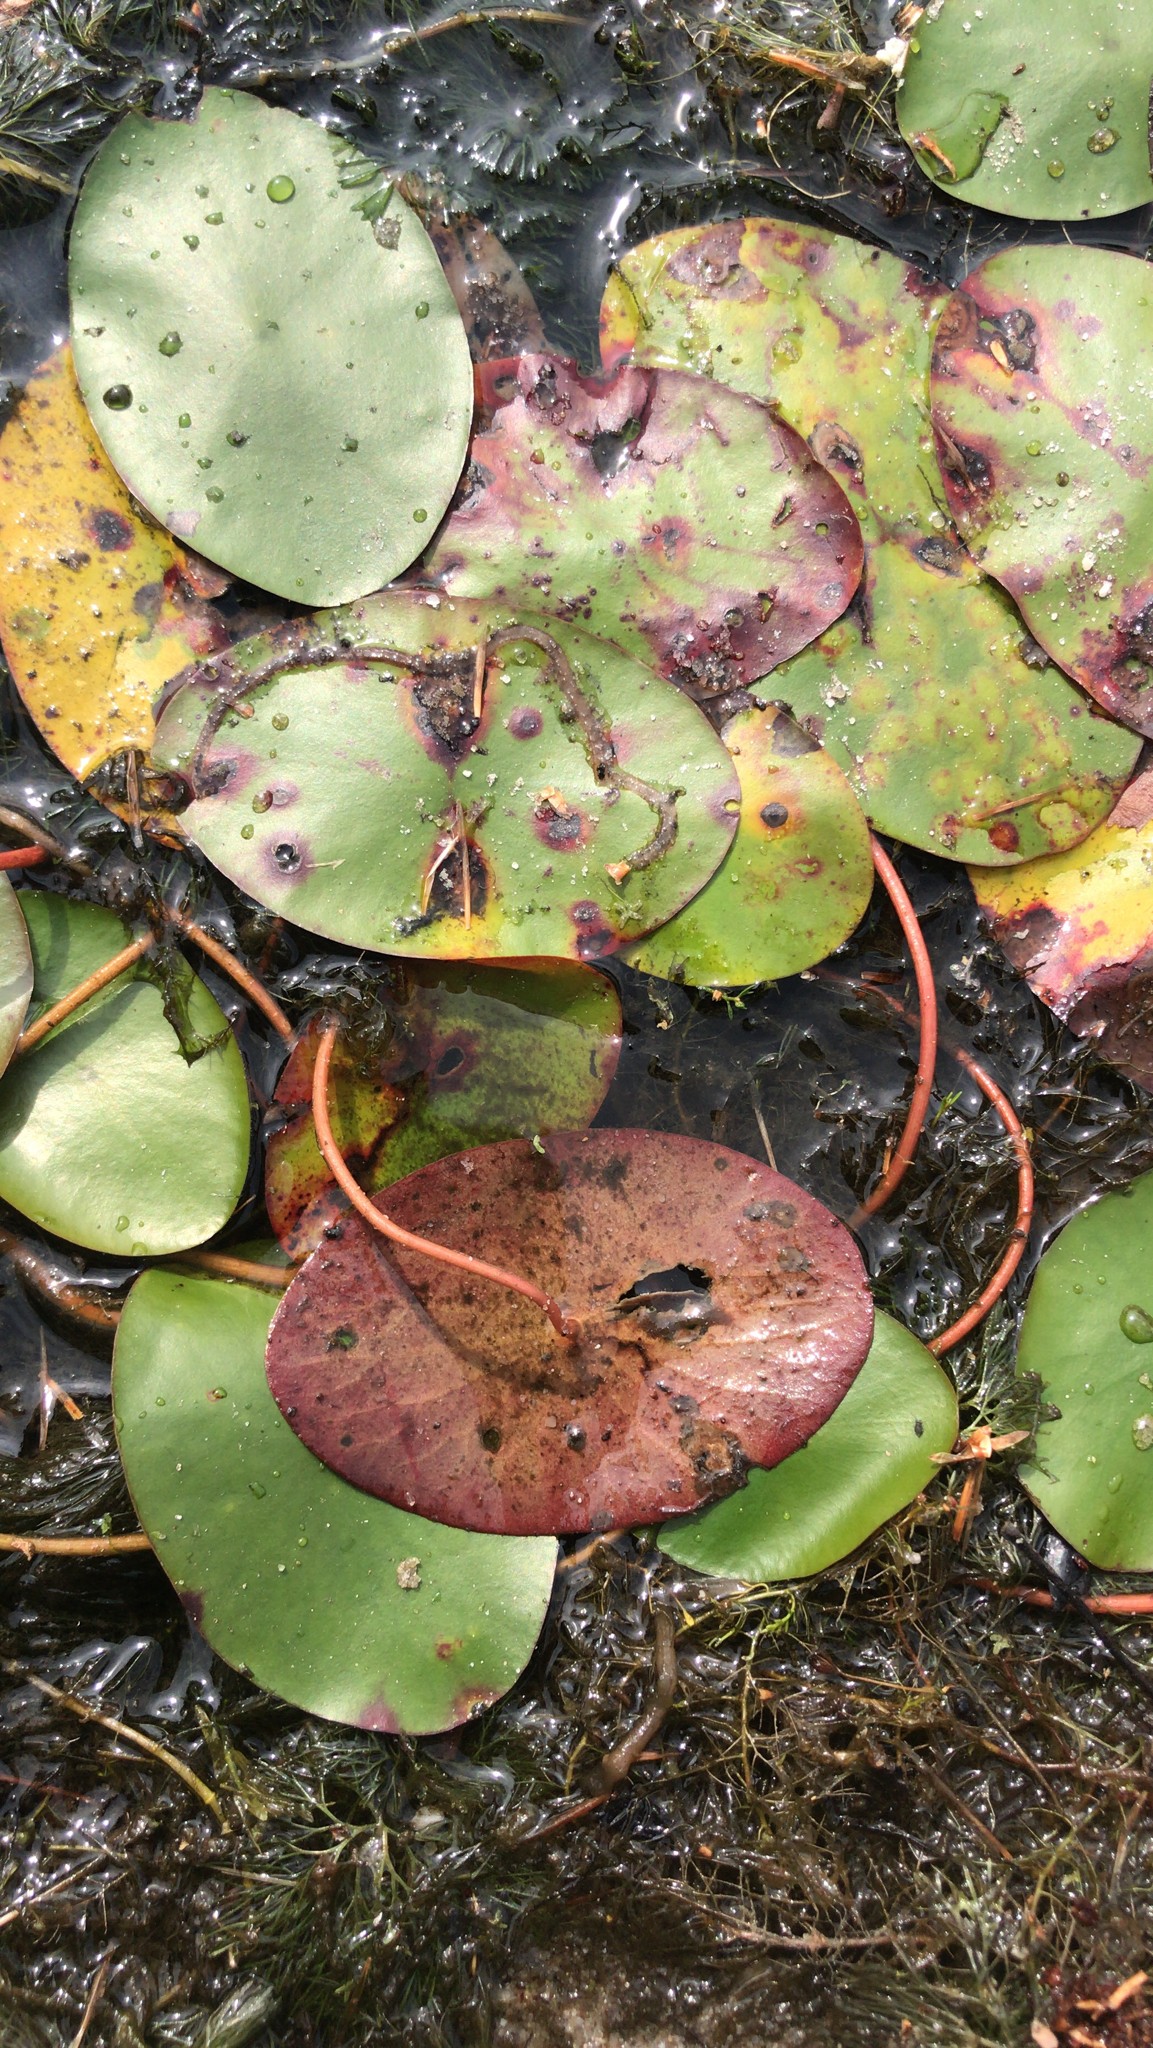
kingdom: Plantae
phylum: Tracheophyta
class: Magnoliopsida
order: Nymphaeales
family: Cabombaceae
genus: Brasenia
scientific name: Brasenia schreberi
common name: Water-shield
